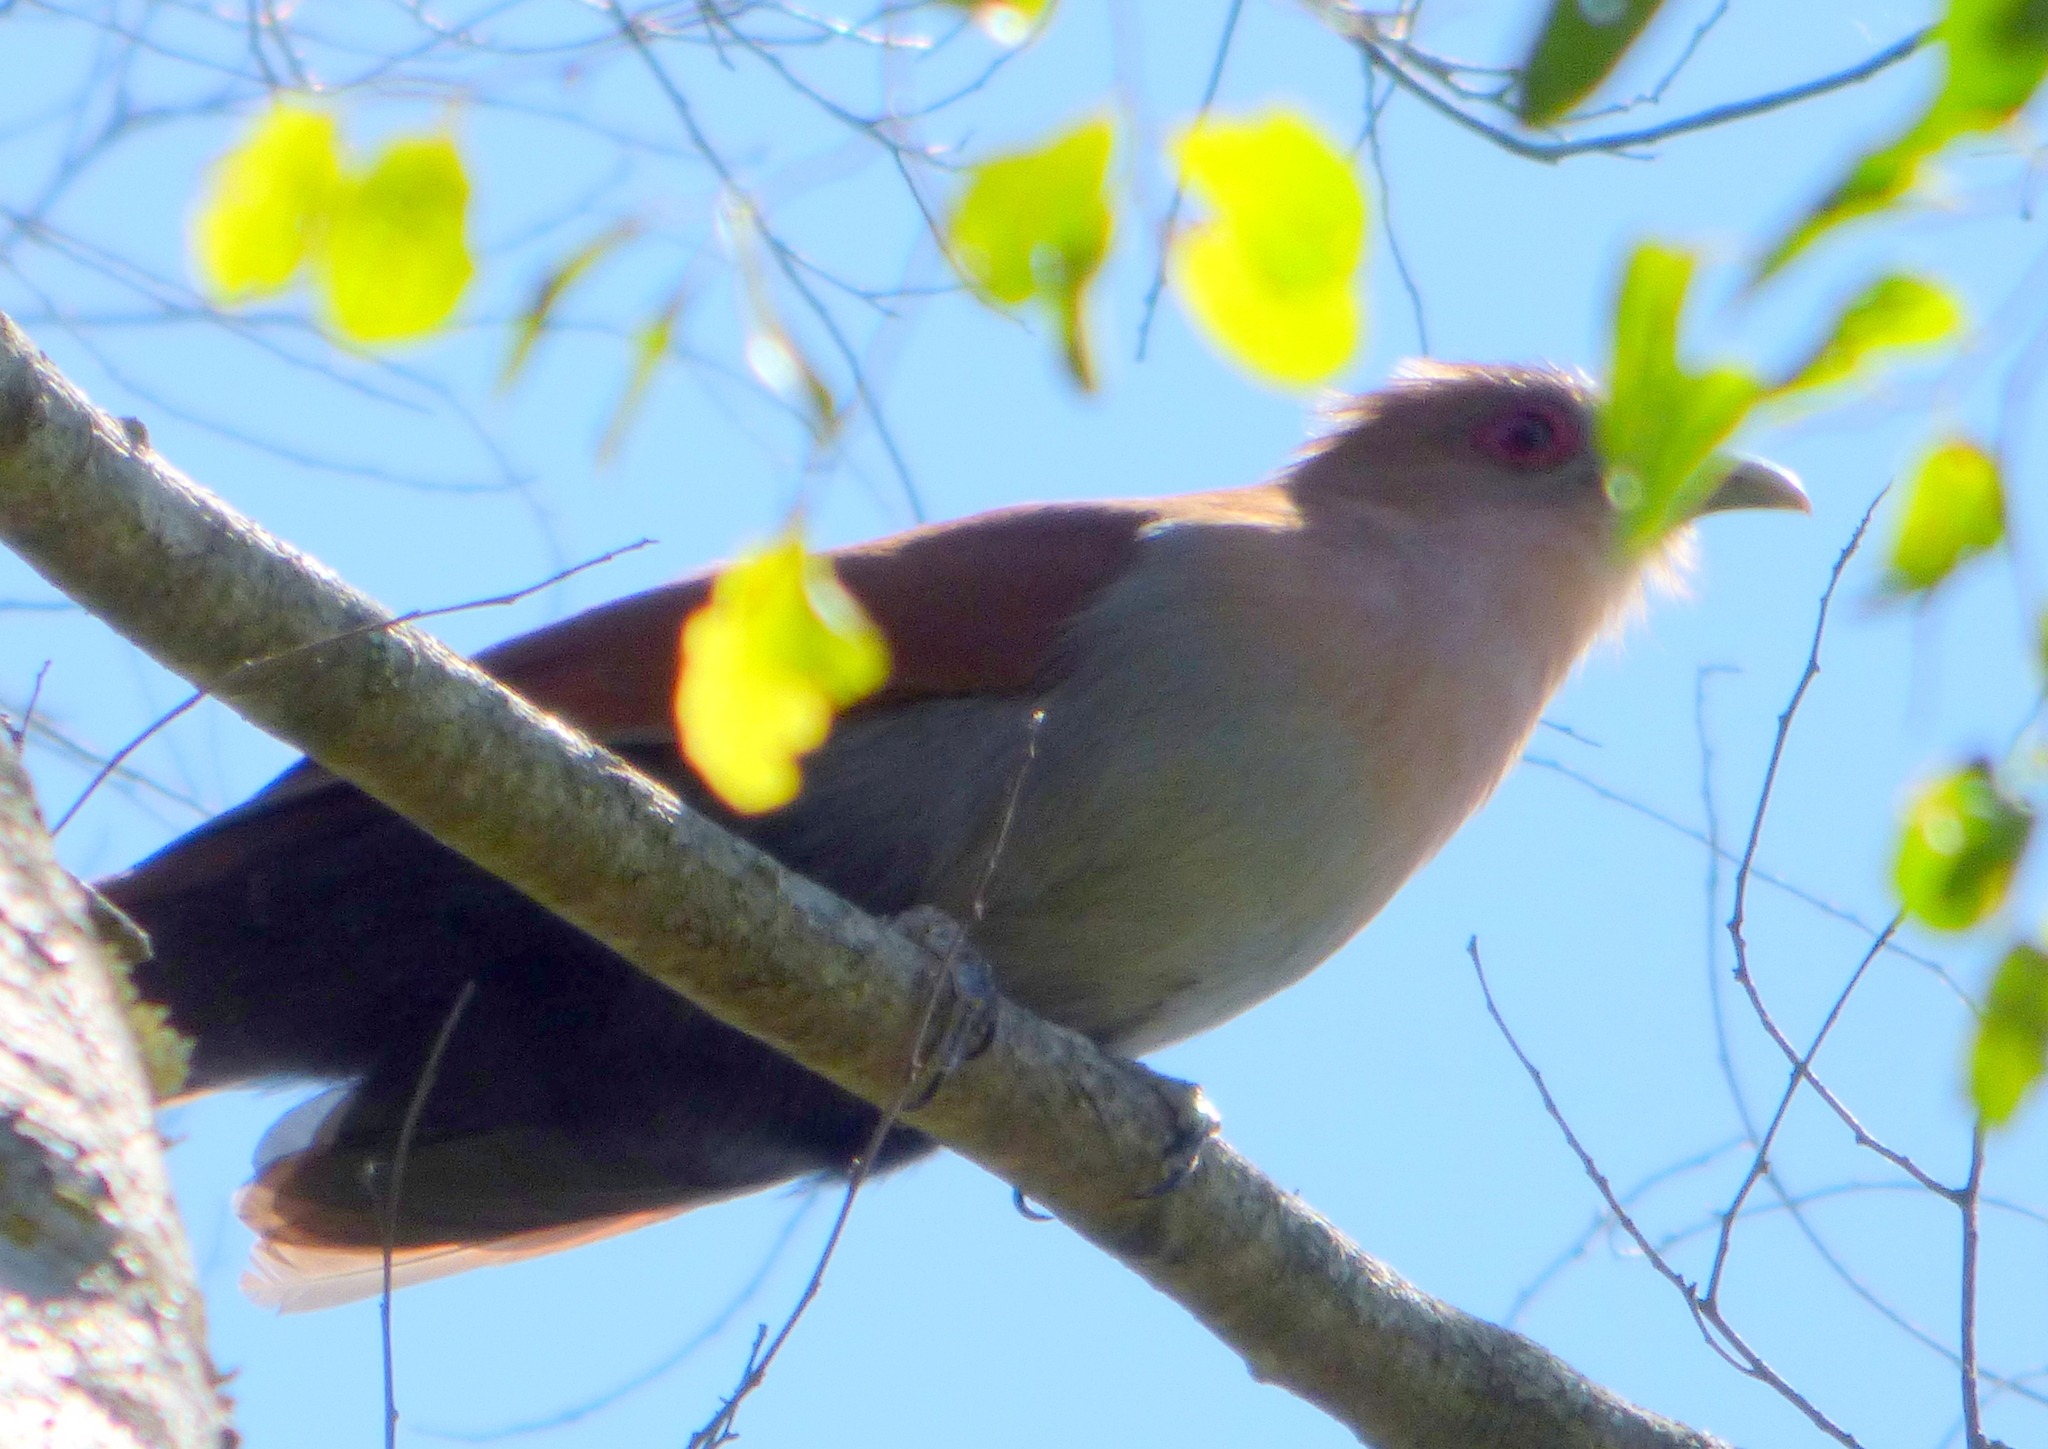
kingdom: Animalia
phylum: Chordata
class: Aves
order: Cuculiformes
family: Cuculidae
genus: Piaya
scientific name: Piaya cayana
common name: Squirrel cuckoo
